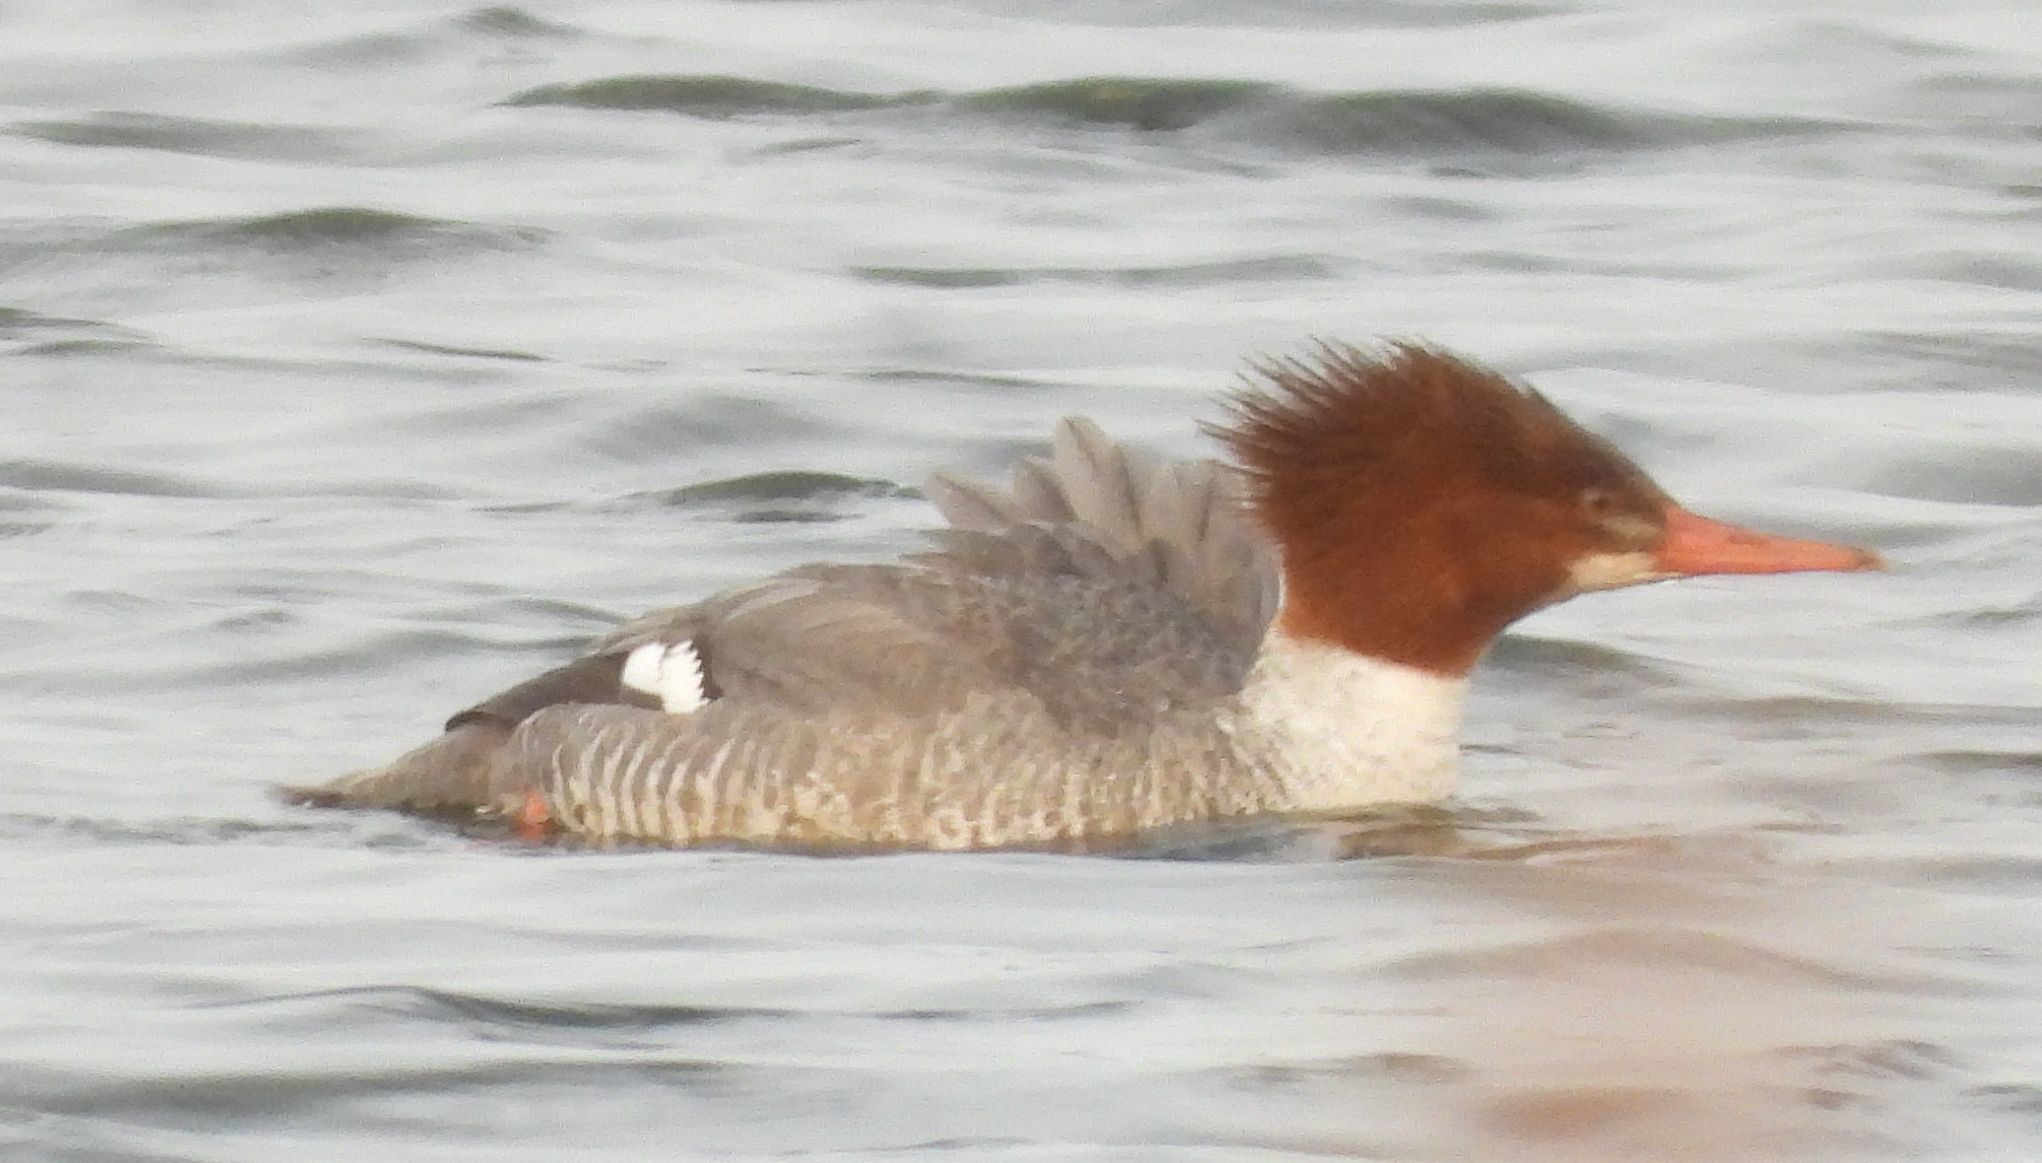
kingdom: Animalia
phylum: Chordata
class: Aves
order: Anseriformes
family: Anatidae
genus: Mergus
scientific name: Mergus merganser
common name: Common merganser
